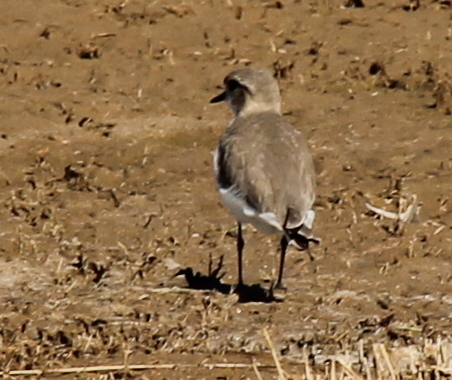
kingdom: Animalia
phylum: Chordata
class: Aves
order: Charadriiformes
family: Charadriidae
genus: Anarhynchus
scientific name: Anarhynchus
